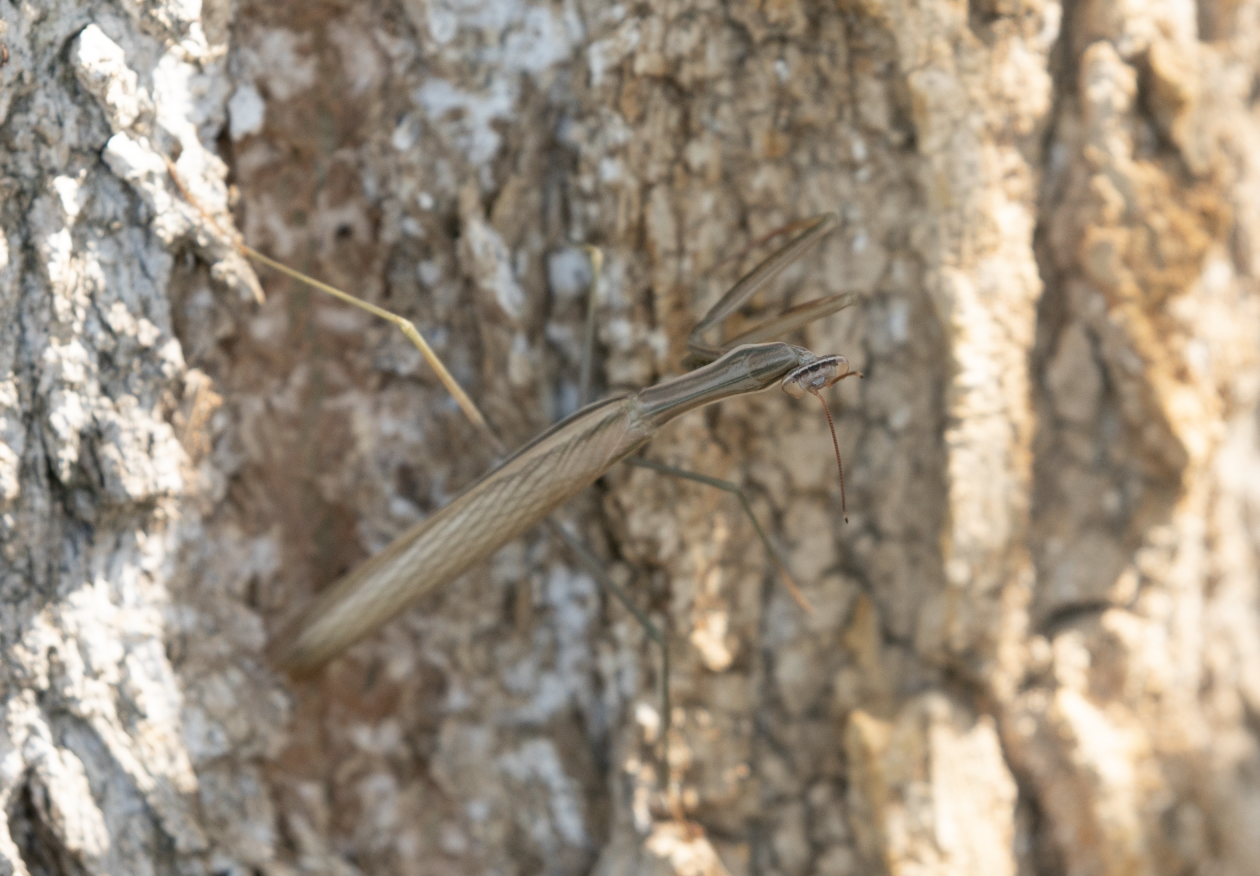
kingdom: Animalia
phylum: Arthropoda
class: Insecta
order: Mantodea
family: Mantidae
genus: Mantis
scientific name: Mantis religiosa
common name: Praying mantis
